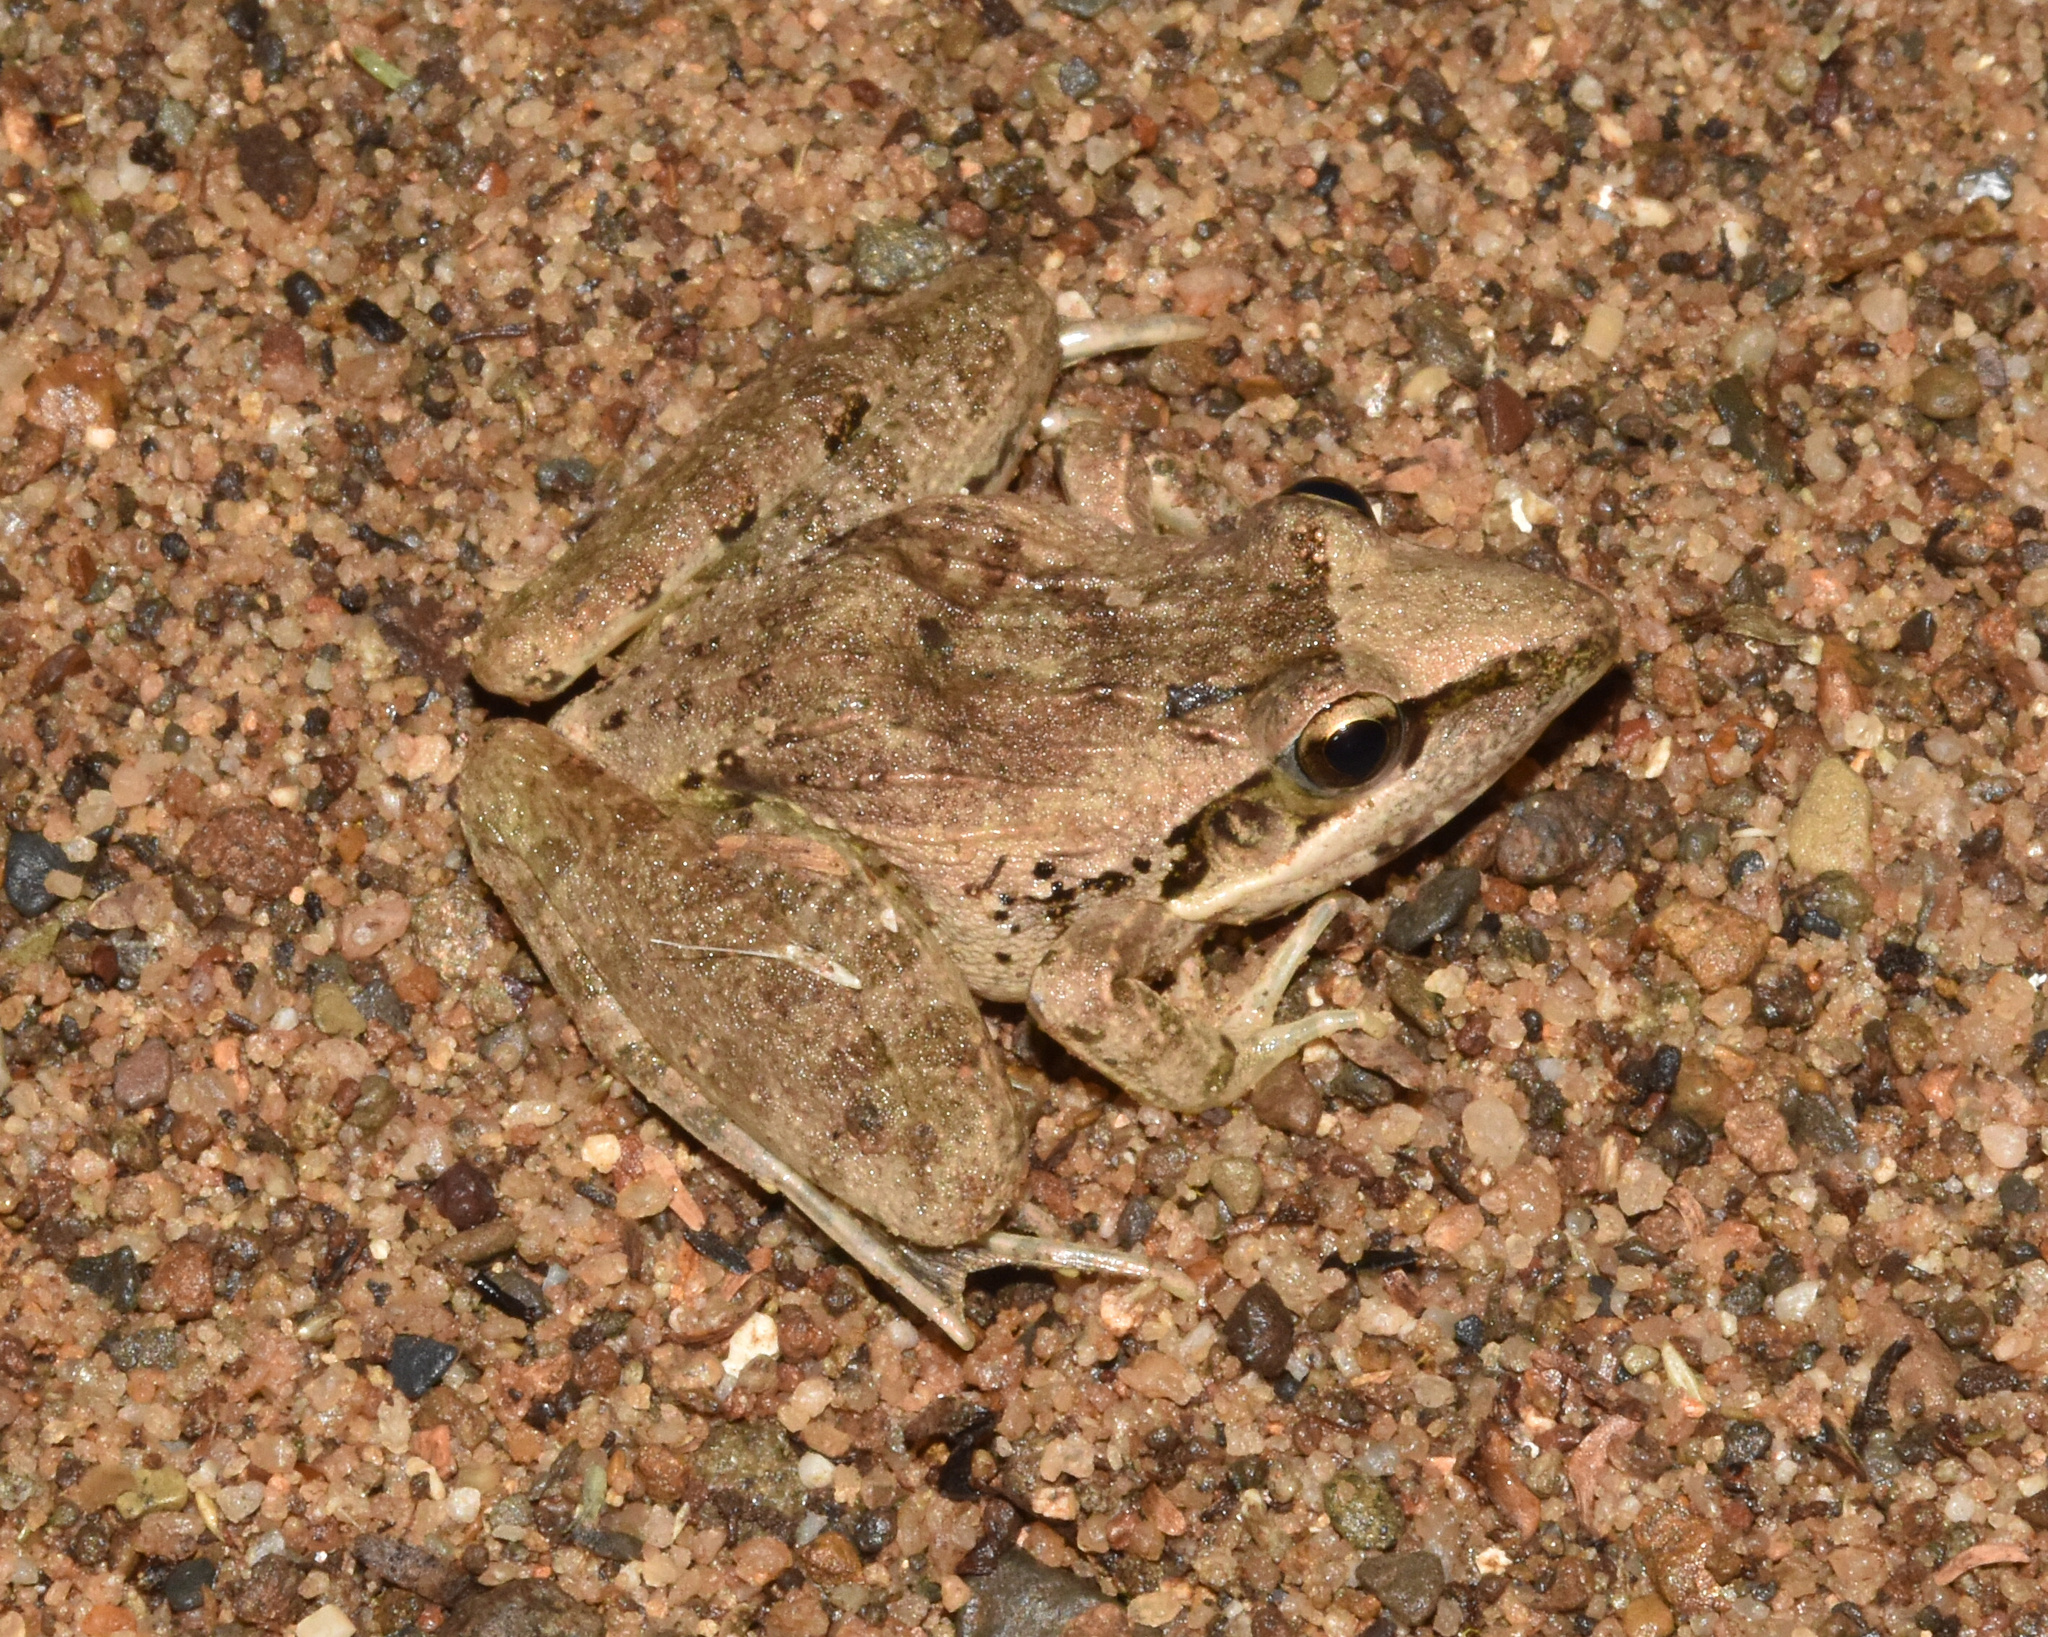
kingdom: Animalia
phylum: Chordata
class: Amphibia
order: Anura
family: Ptychadenidae
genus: Ptychadena
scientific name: Ptychadena anchietae
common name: Anchieta's ridged frog
